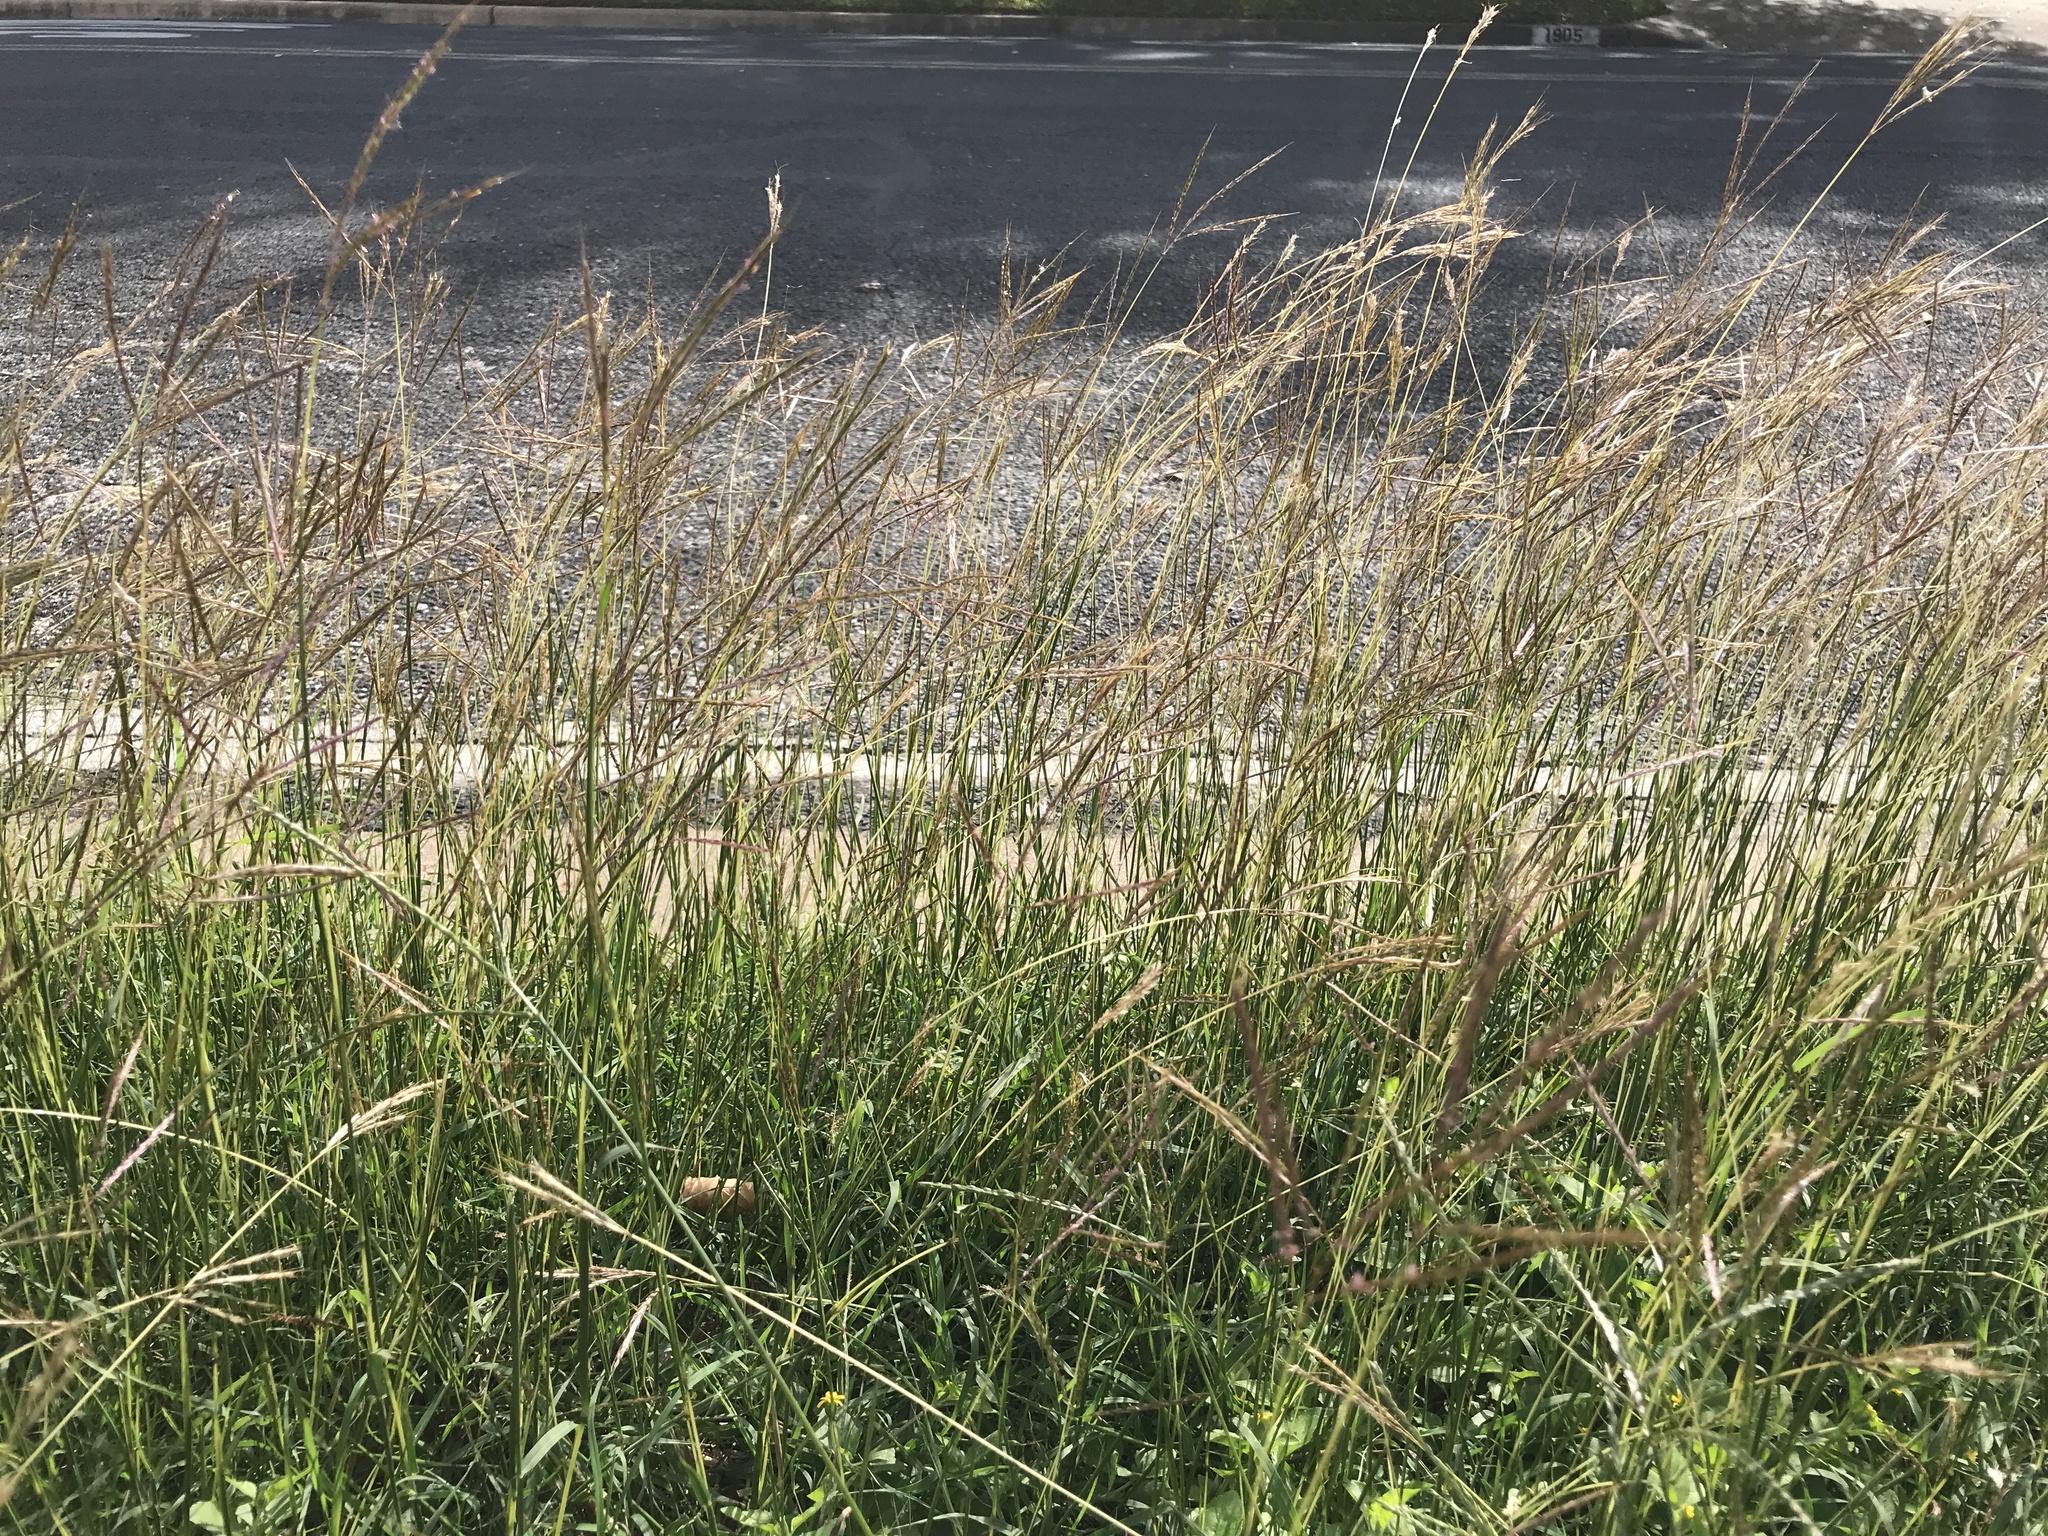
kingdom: Plantae
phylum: Tracheophyta
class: Liliopsida
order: Poales
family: Poaceae
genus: Bothriochloa
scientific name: Bothriochloa ischaemum
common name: Yellow bluestem
